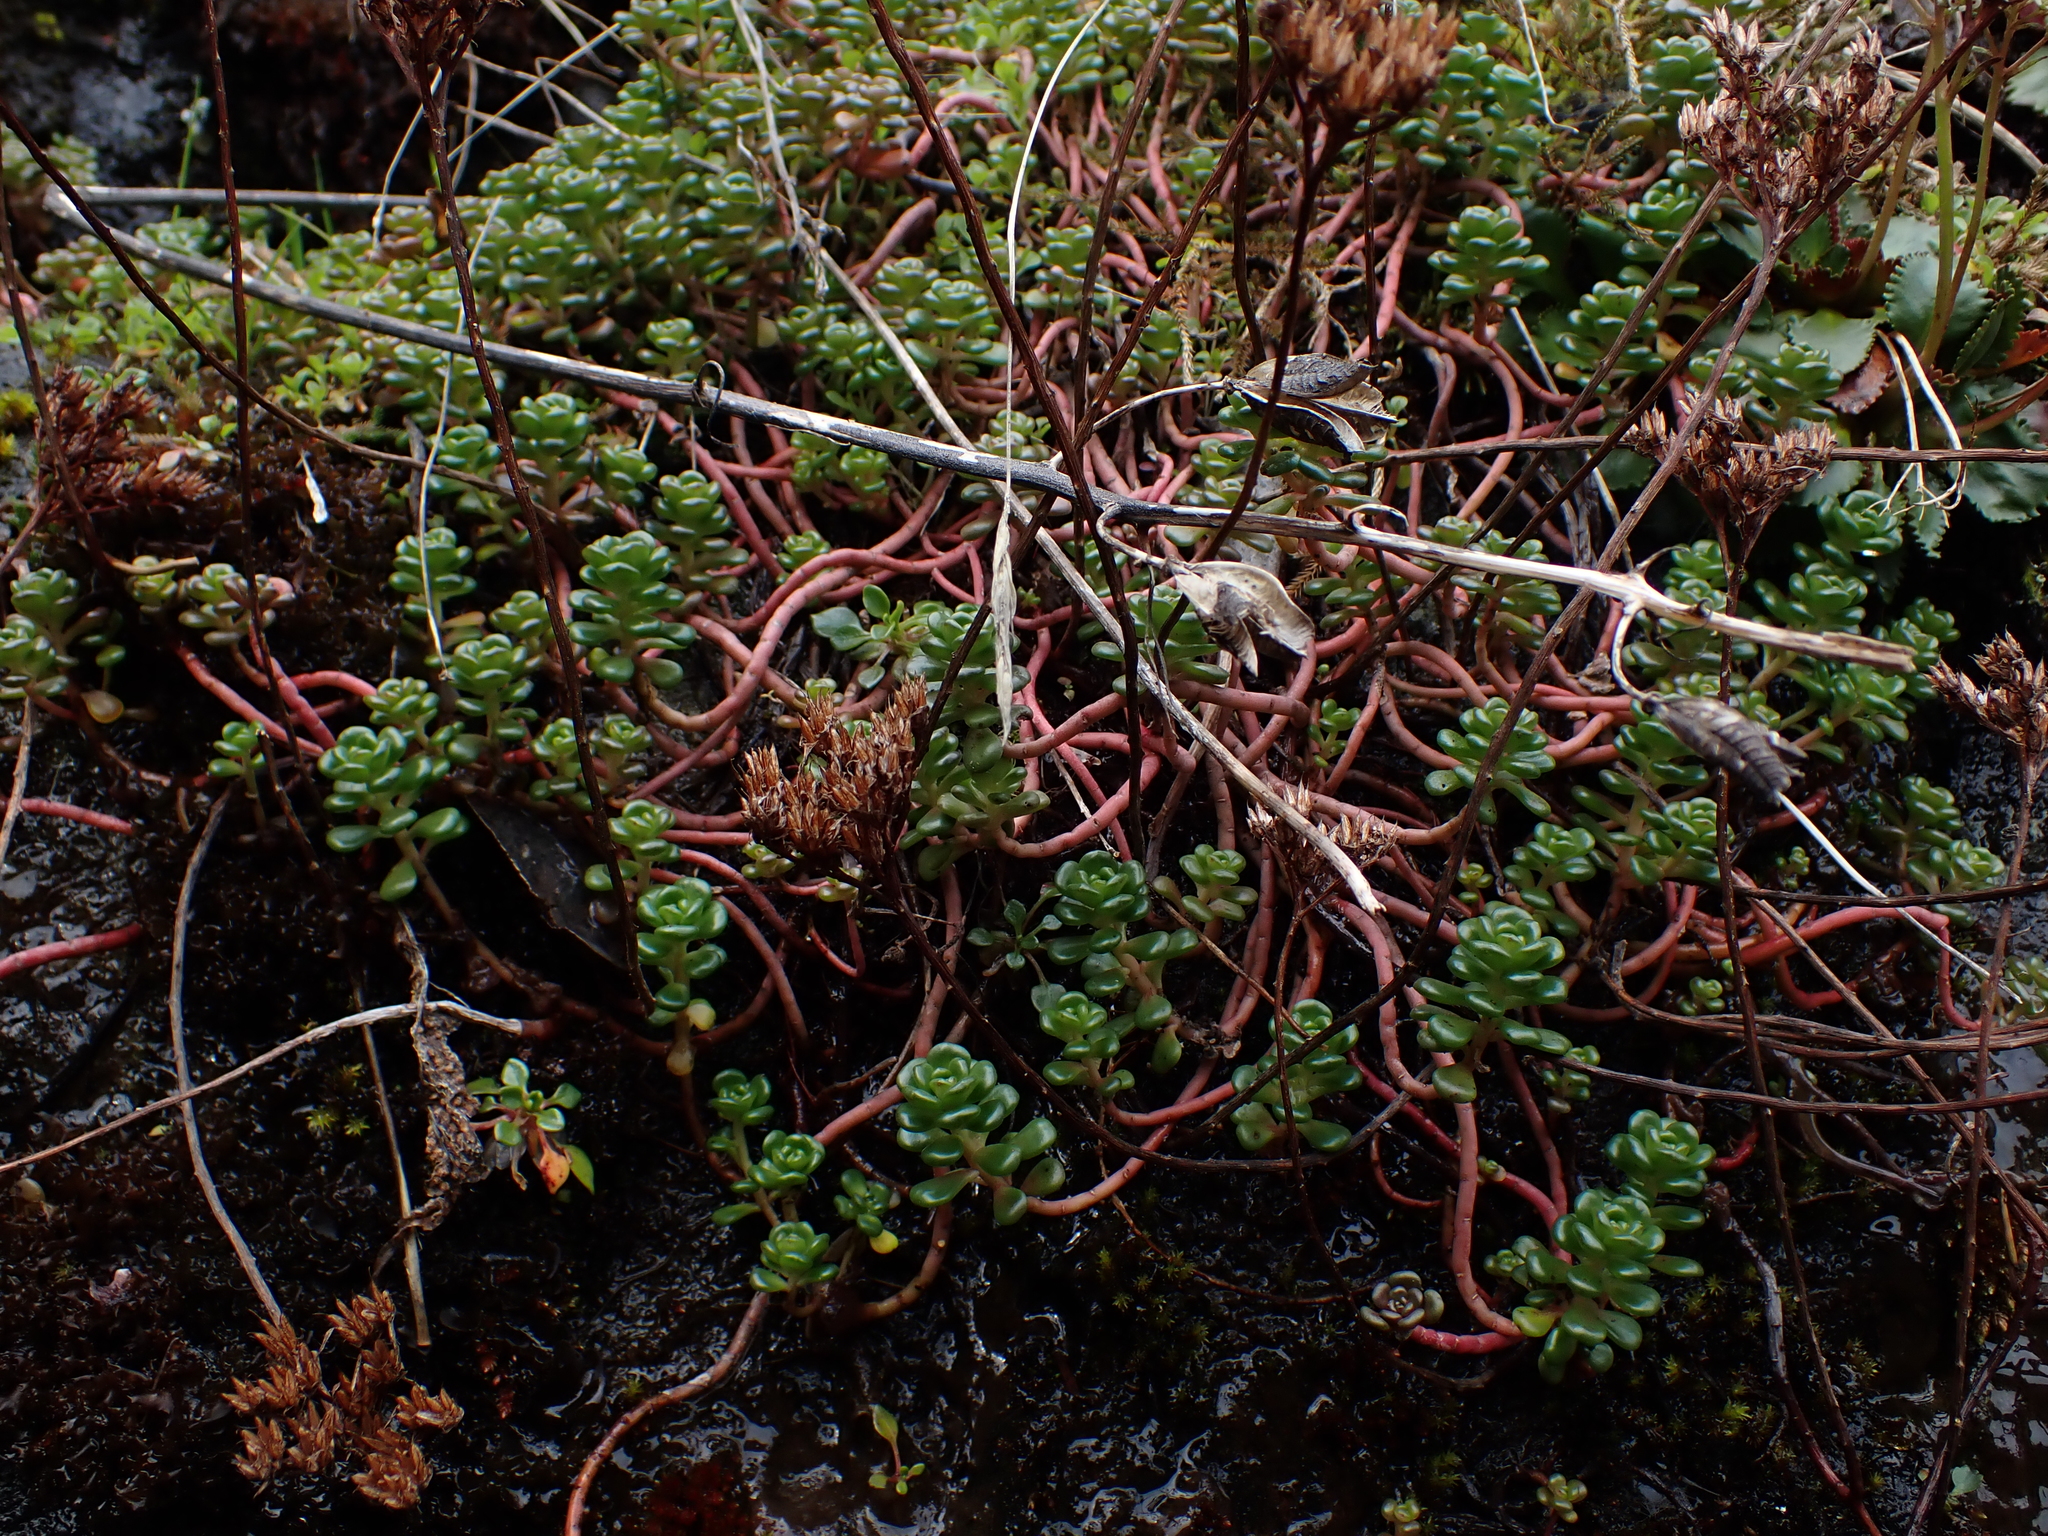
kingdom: Plantae
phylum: Tracheophyta
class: Magnoliopsida
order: Saxifragales
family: Crassulaceae
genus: Sedum
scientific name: Sedum oreganum
